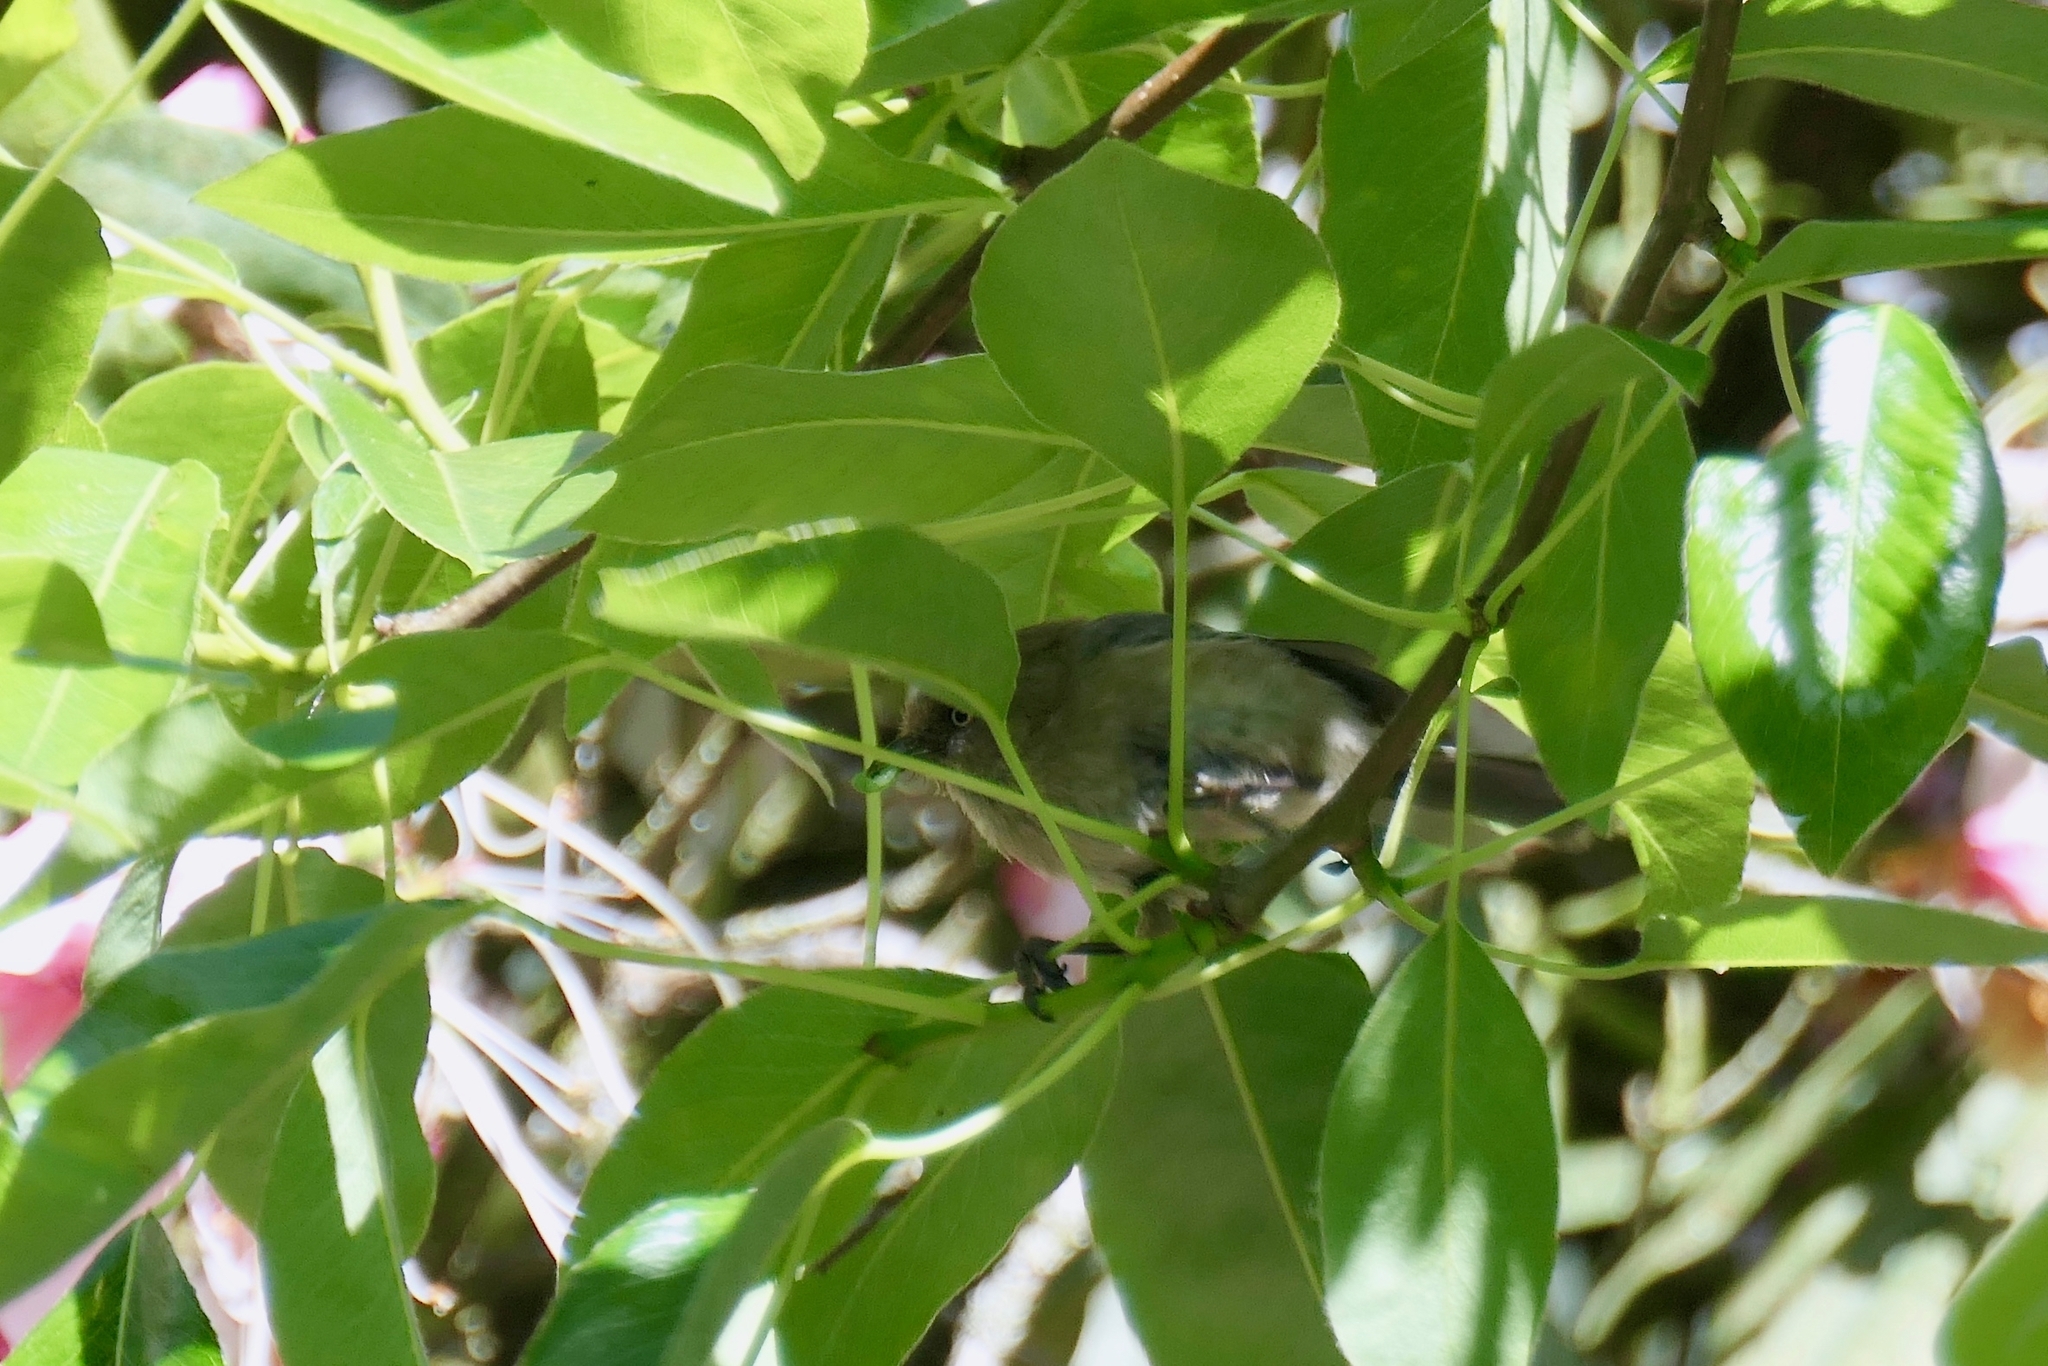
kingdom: Animalia
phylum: Chordata
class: Aves
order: Passeriformes
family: Aegithalidae
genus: Psaltriparus
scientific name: Psaltriparus minimus
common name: American bushtit
